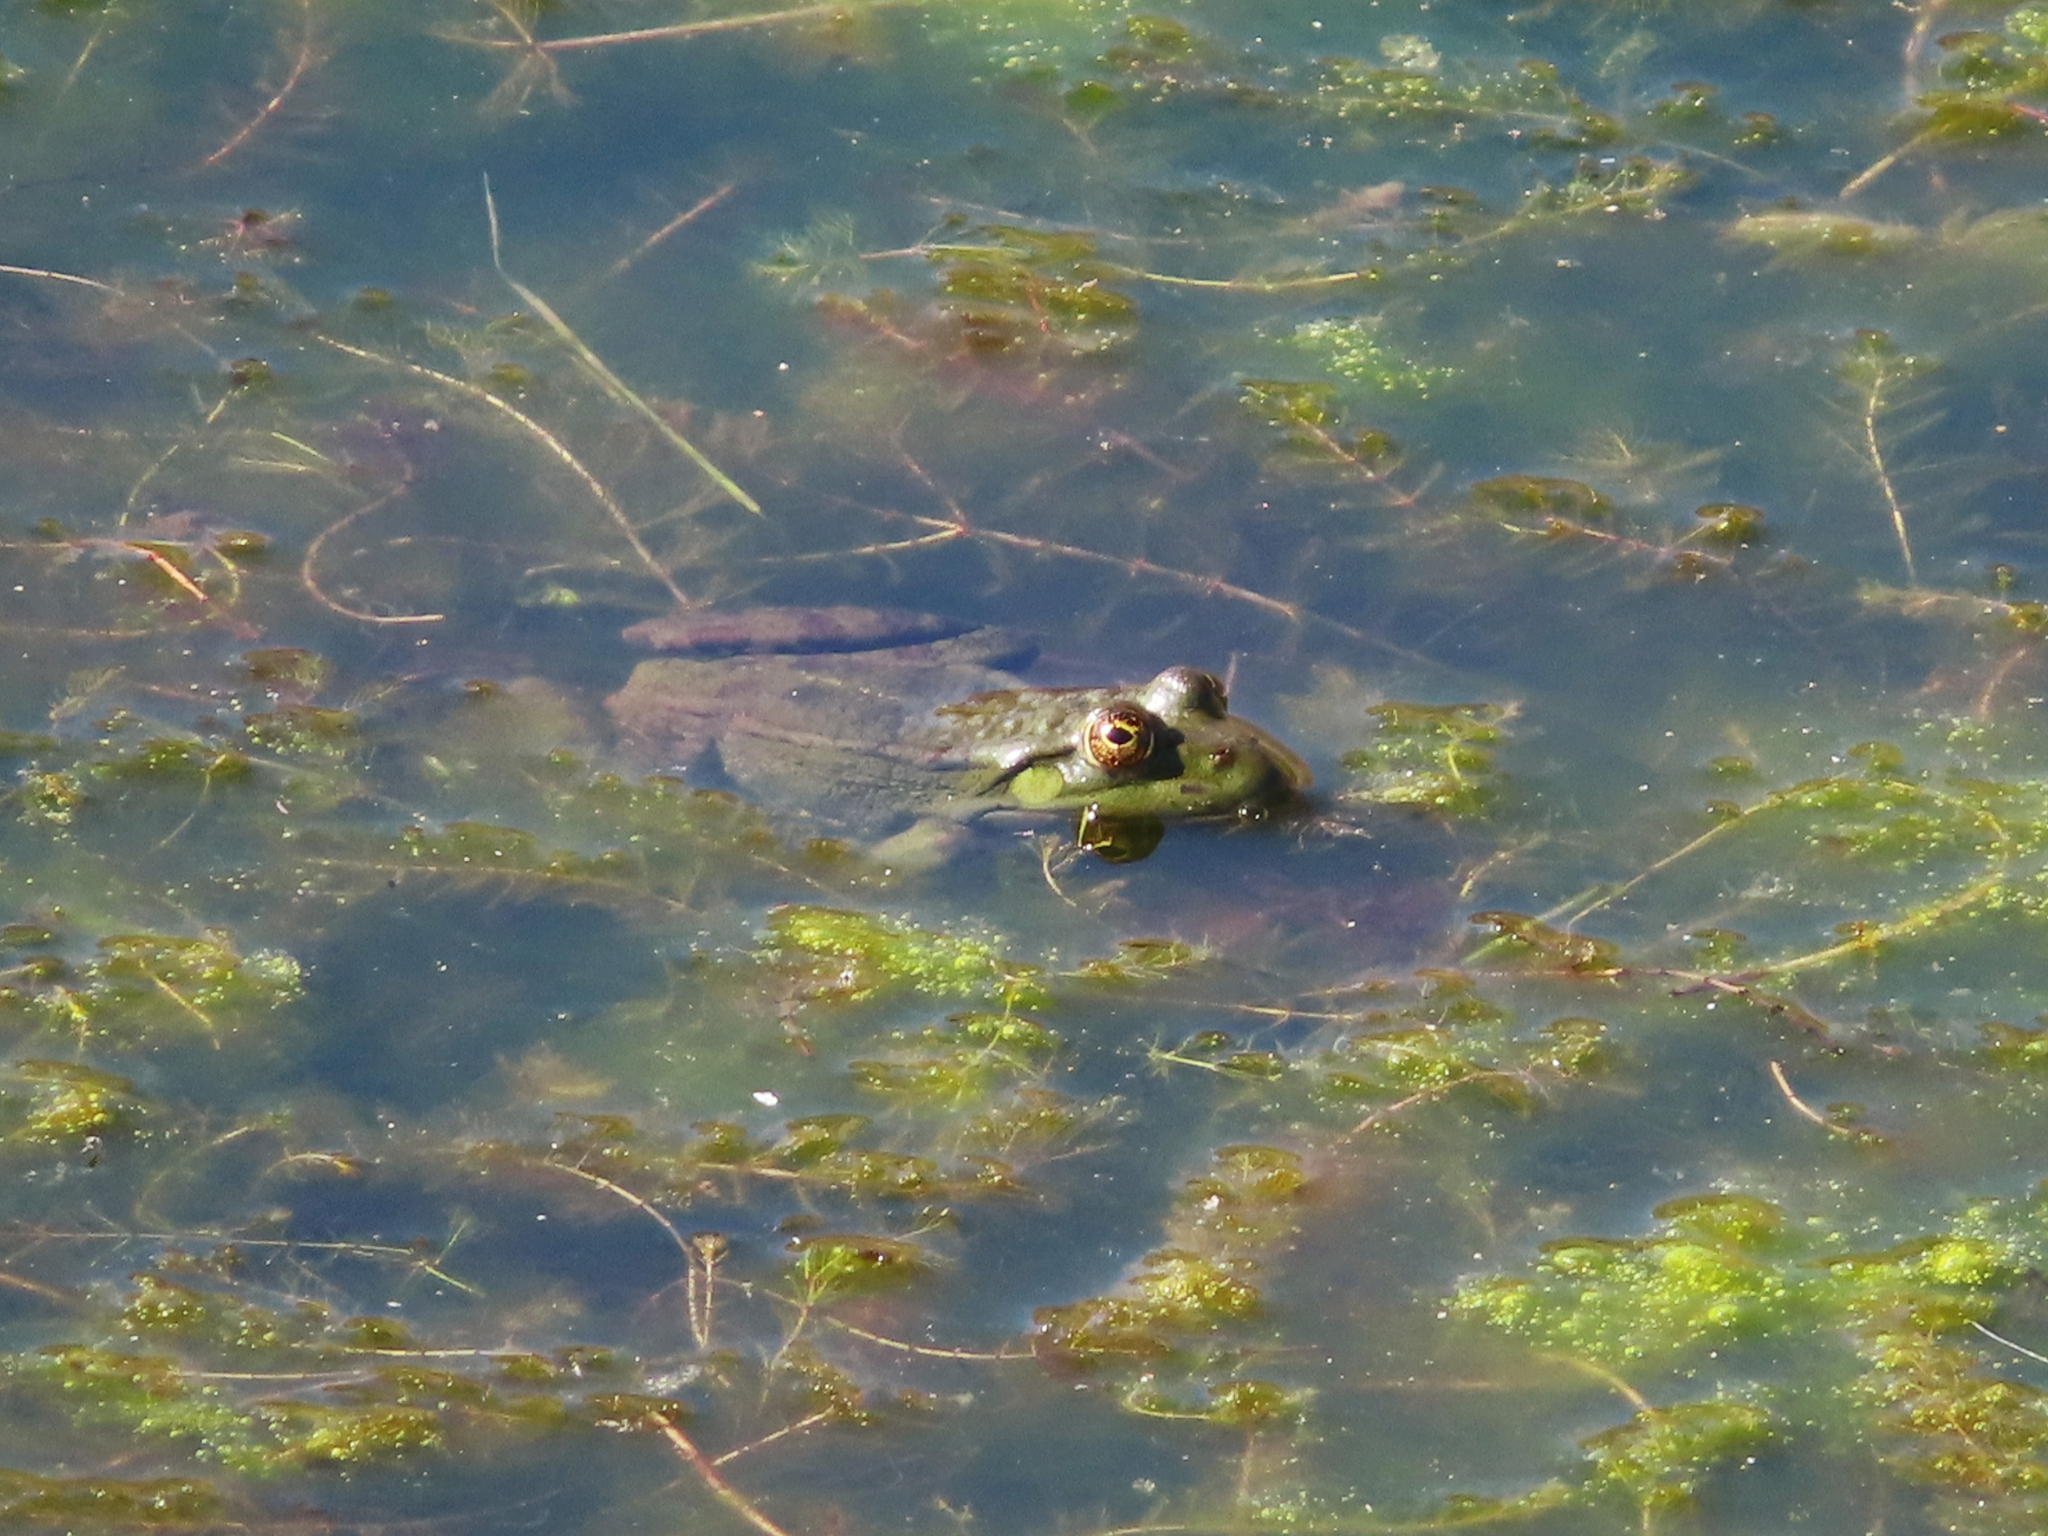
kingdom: Animalia
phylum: Chordata
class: Amphibia
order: Anura
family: Ranidae
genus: Pelophylax
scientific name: Pelophylax ridibundus
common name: Marsh frog
